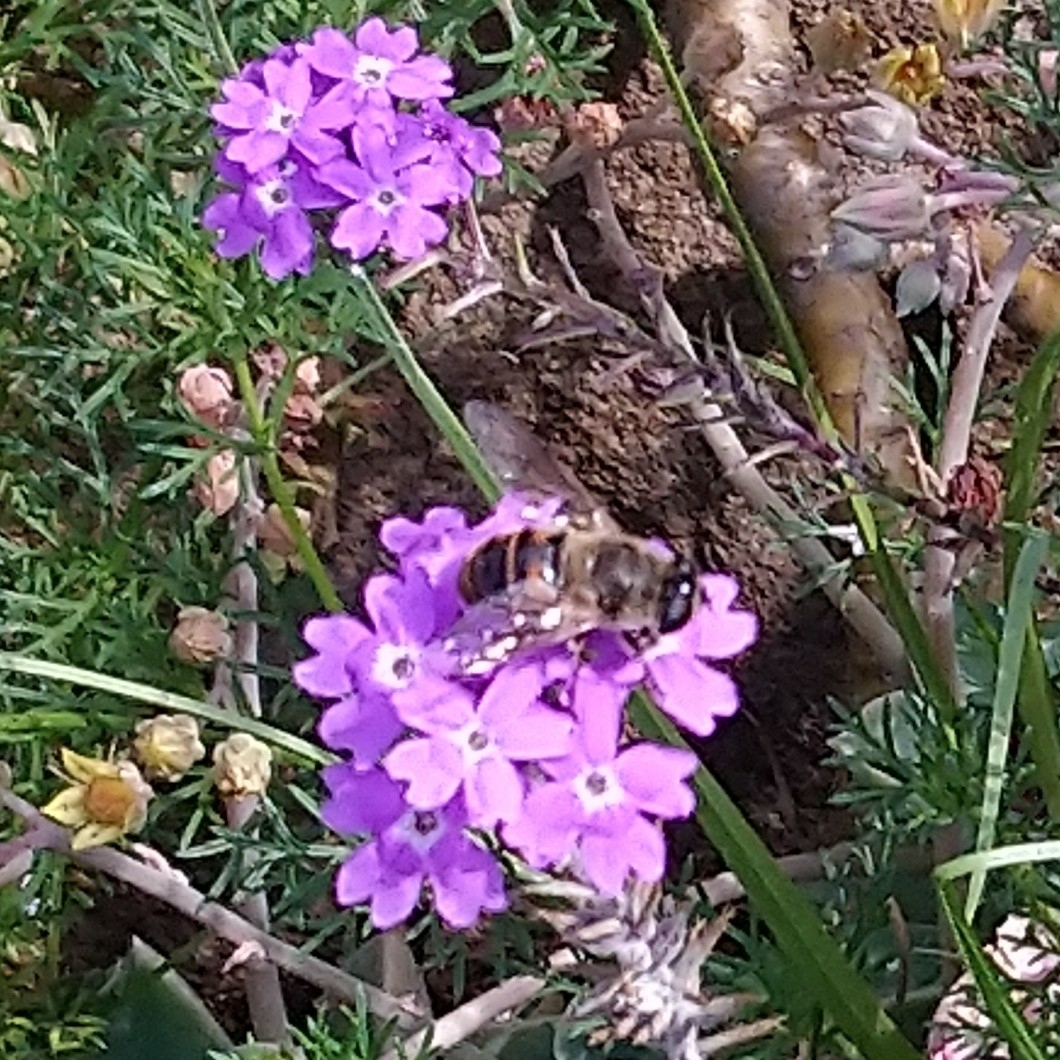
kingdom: Animalia
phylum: Arthropoda
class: Insecta
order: Diptera
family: Syrphidae
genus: Eristalis
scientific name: Eristalis tenax
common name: Drone fly
